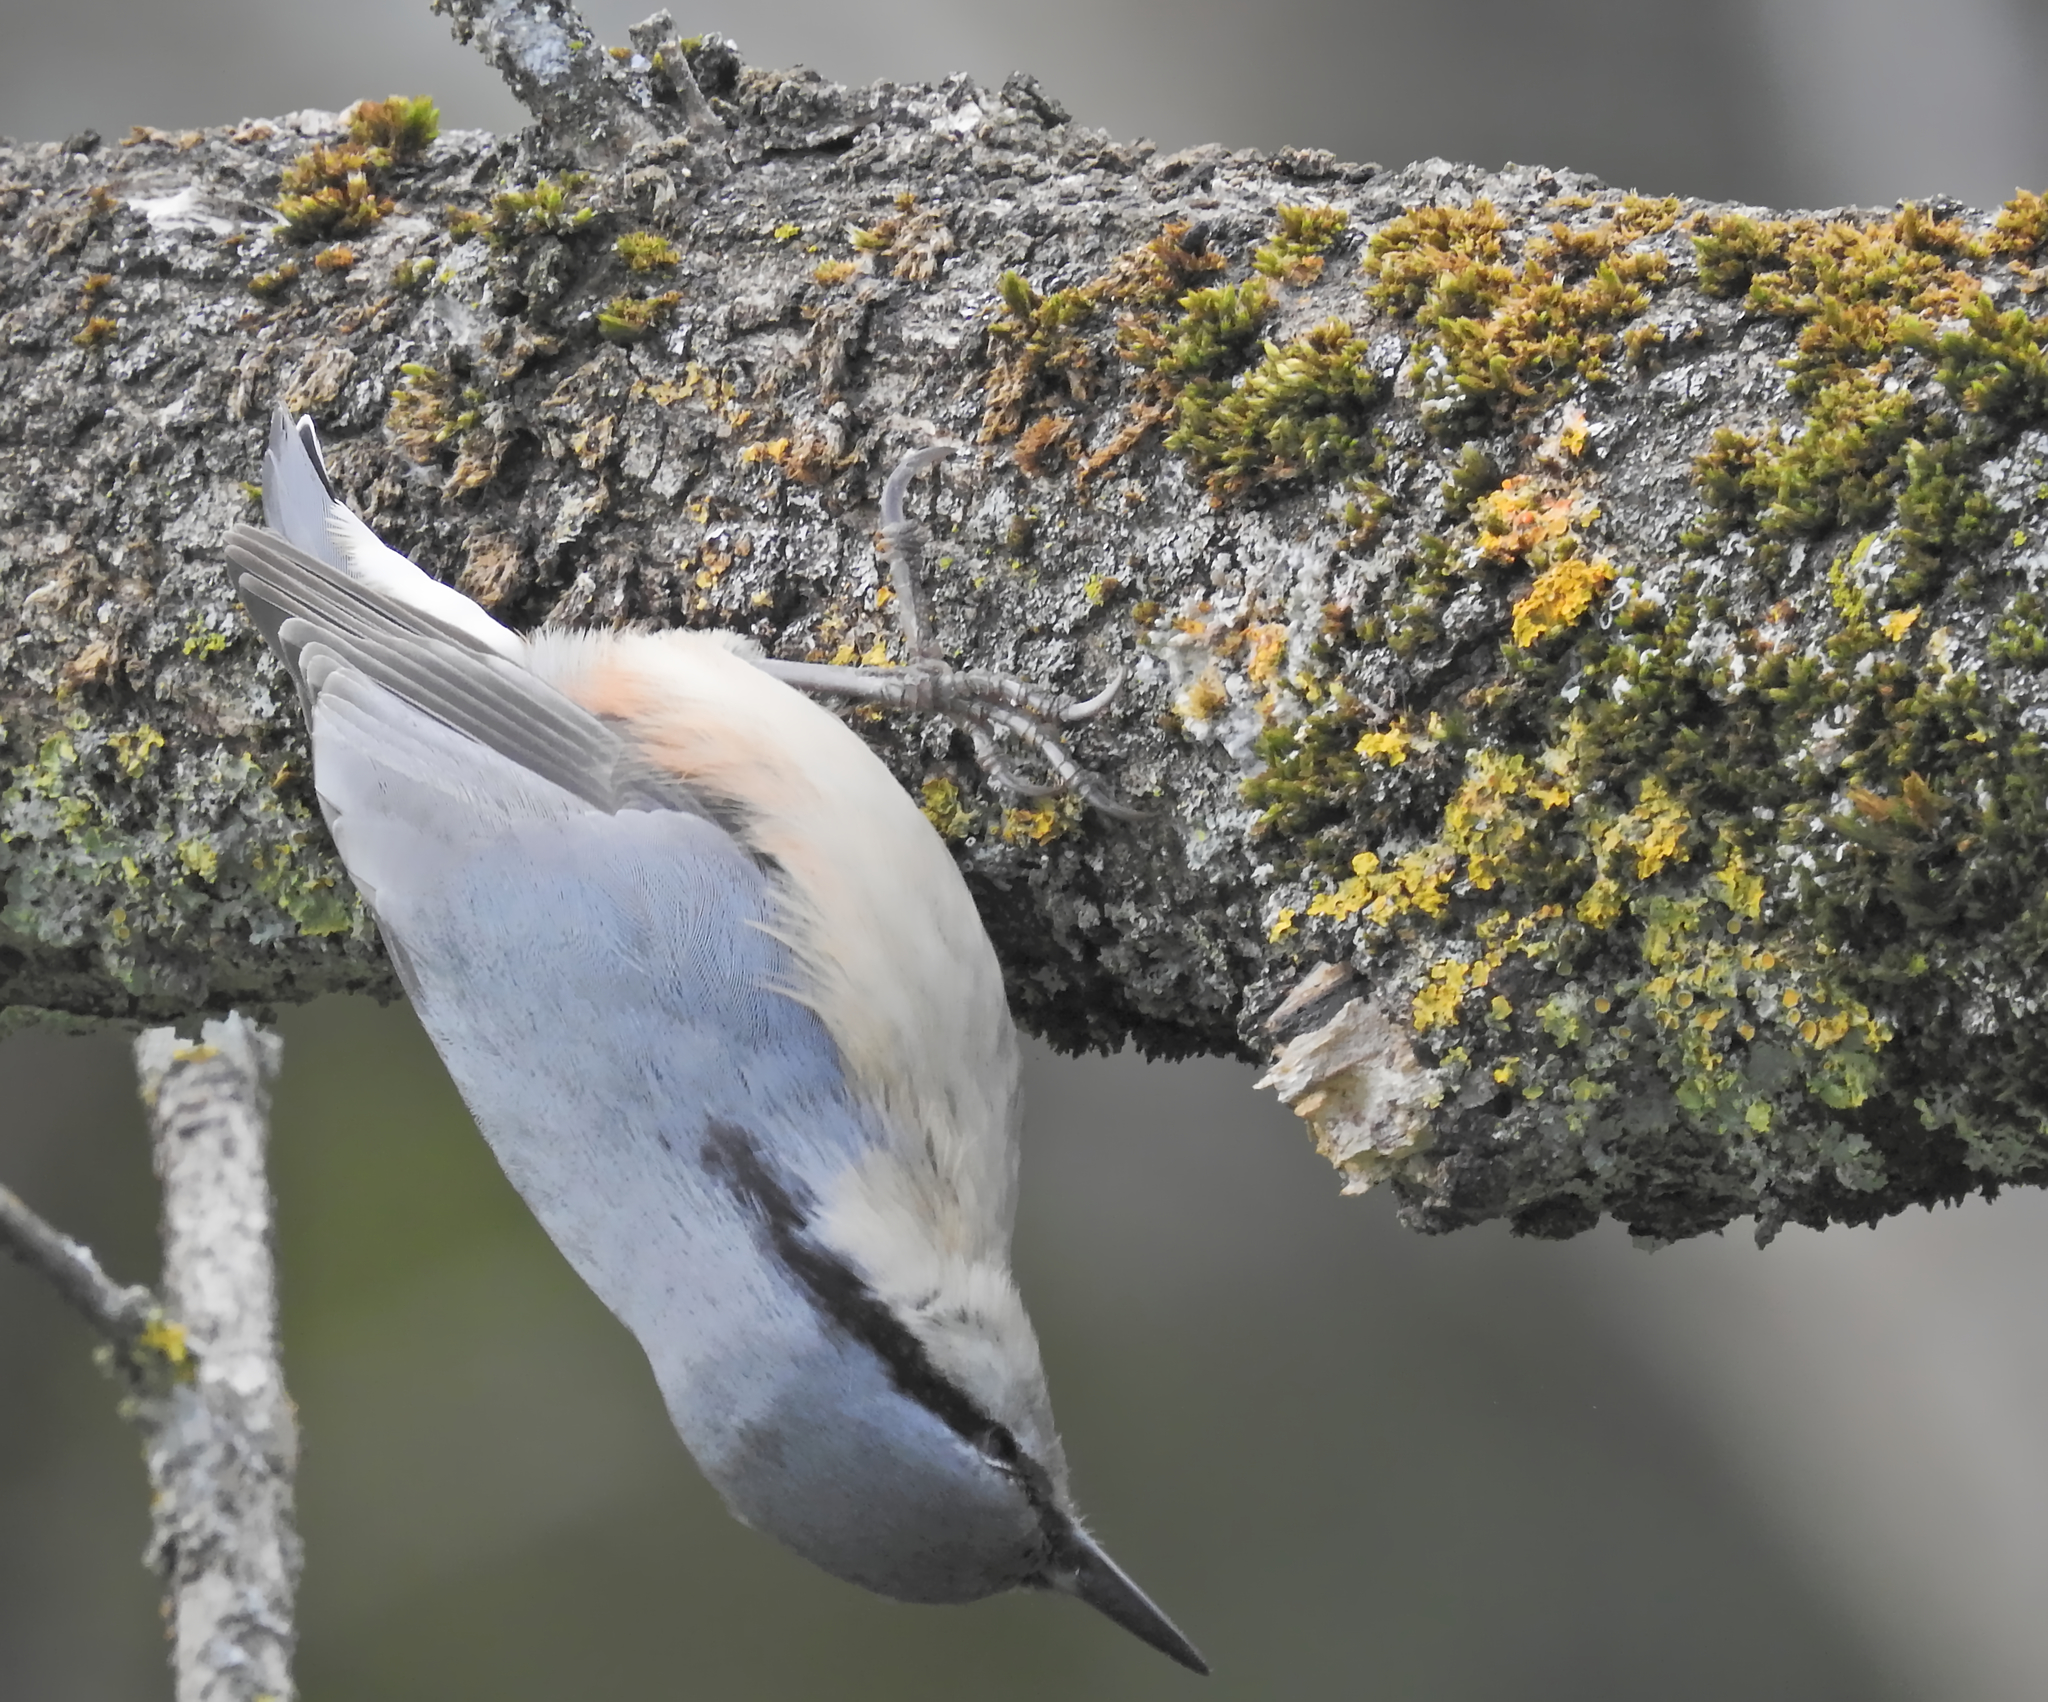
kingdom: Animalia
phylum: Chordata
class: Aves
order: Passeriformes
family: Sittidae
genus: Sitta
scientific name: Sitta europaea
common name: Eurasian nuthatch
